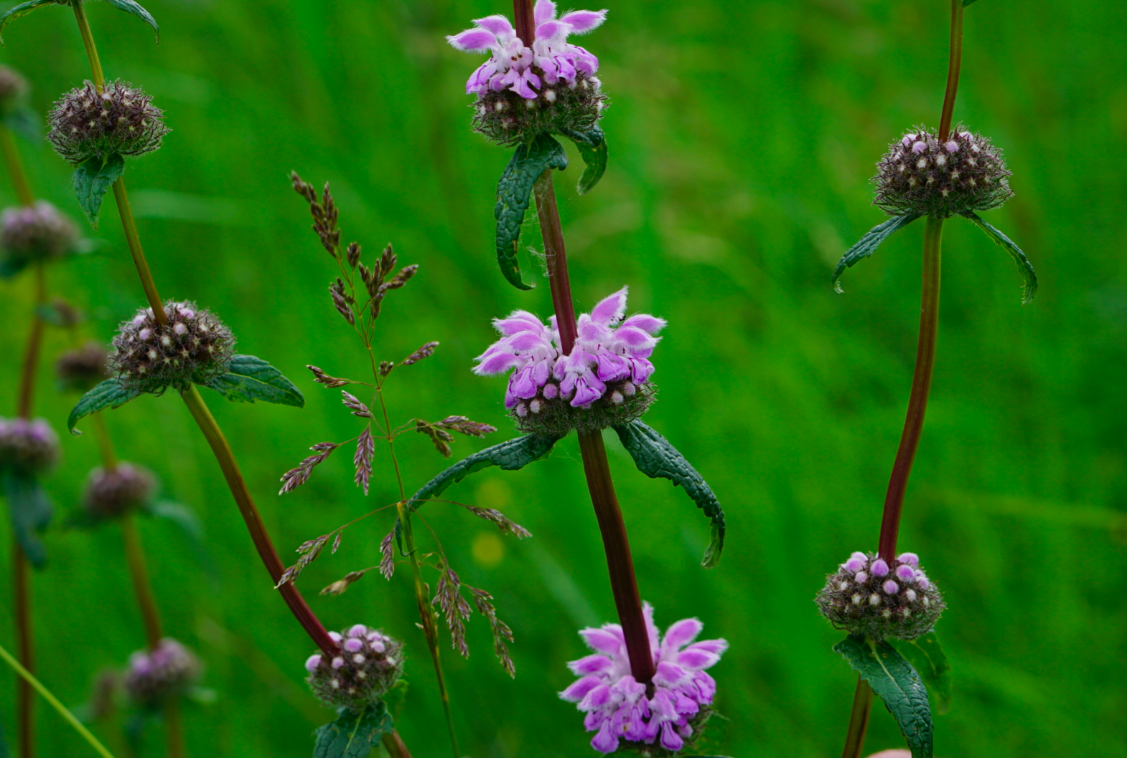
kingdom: Plantae
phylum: Tracheophyta
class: Magnoliopsida
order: Lamiales
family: Lamiaceae
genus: Phlomoides
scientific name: Phlomoides tuberosa
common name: Tuberous jerusalem sage
